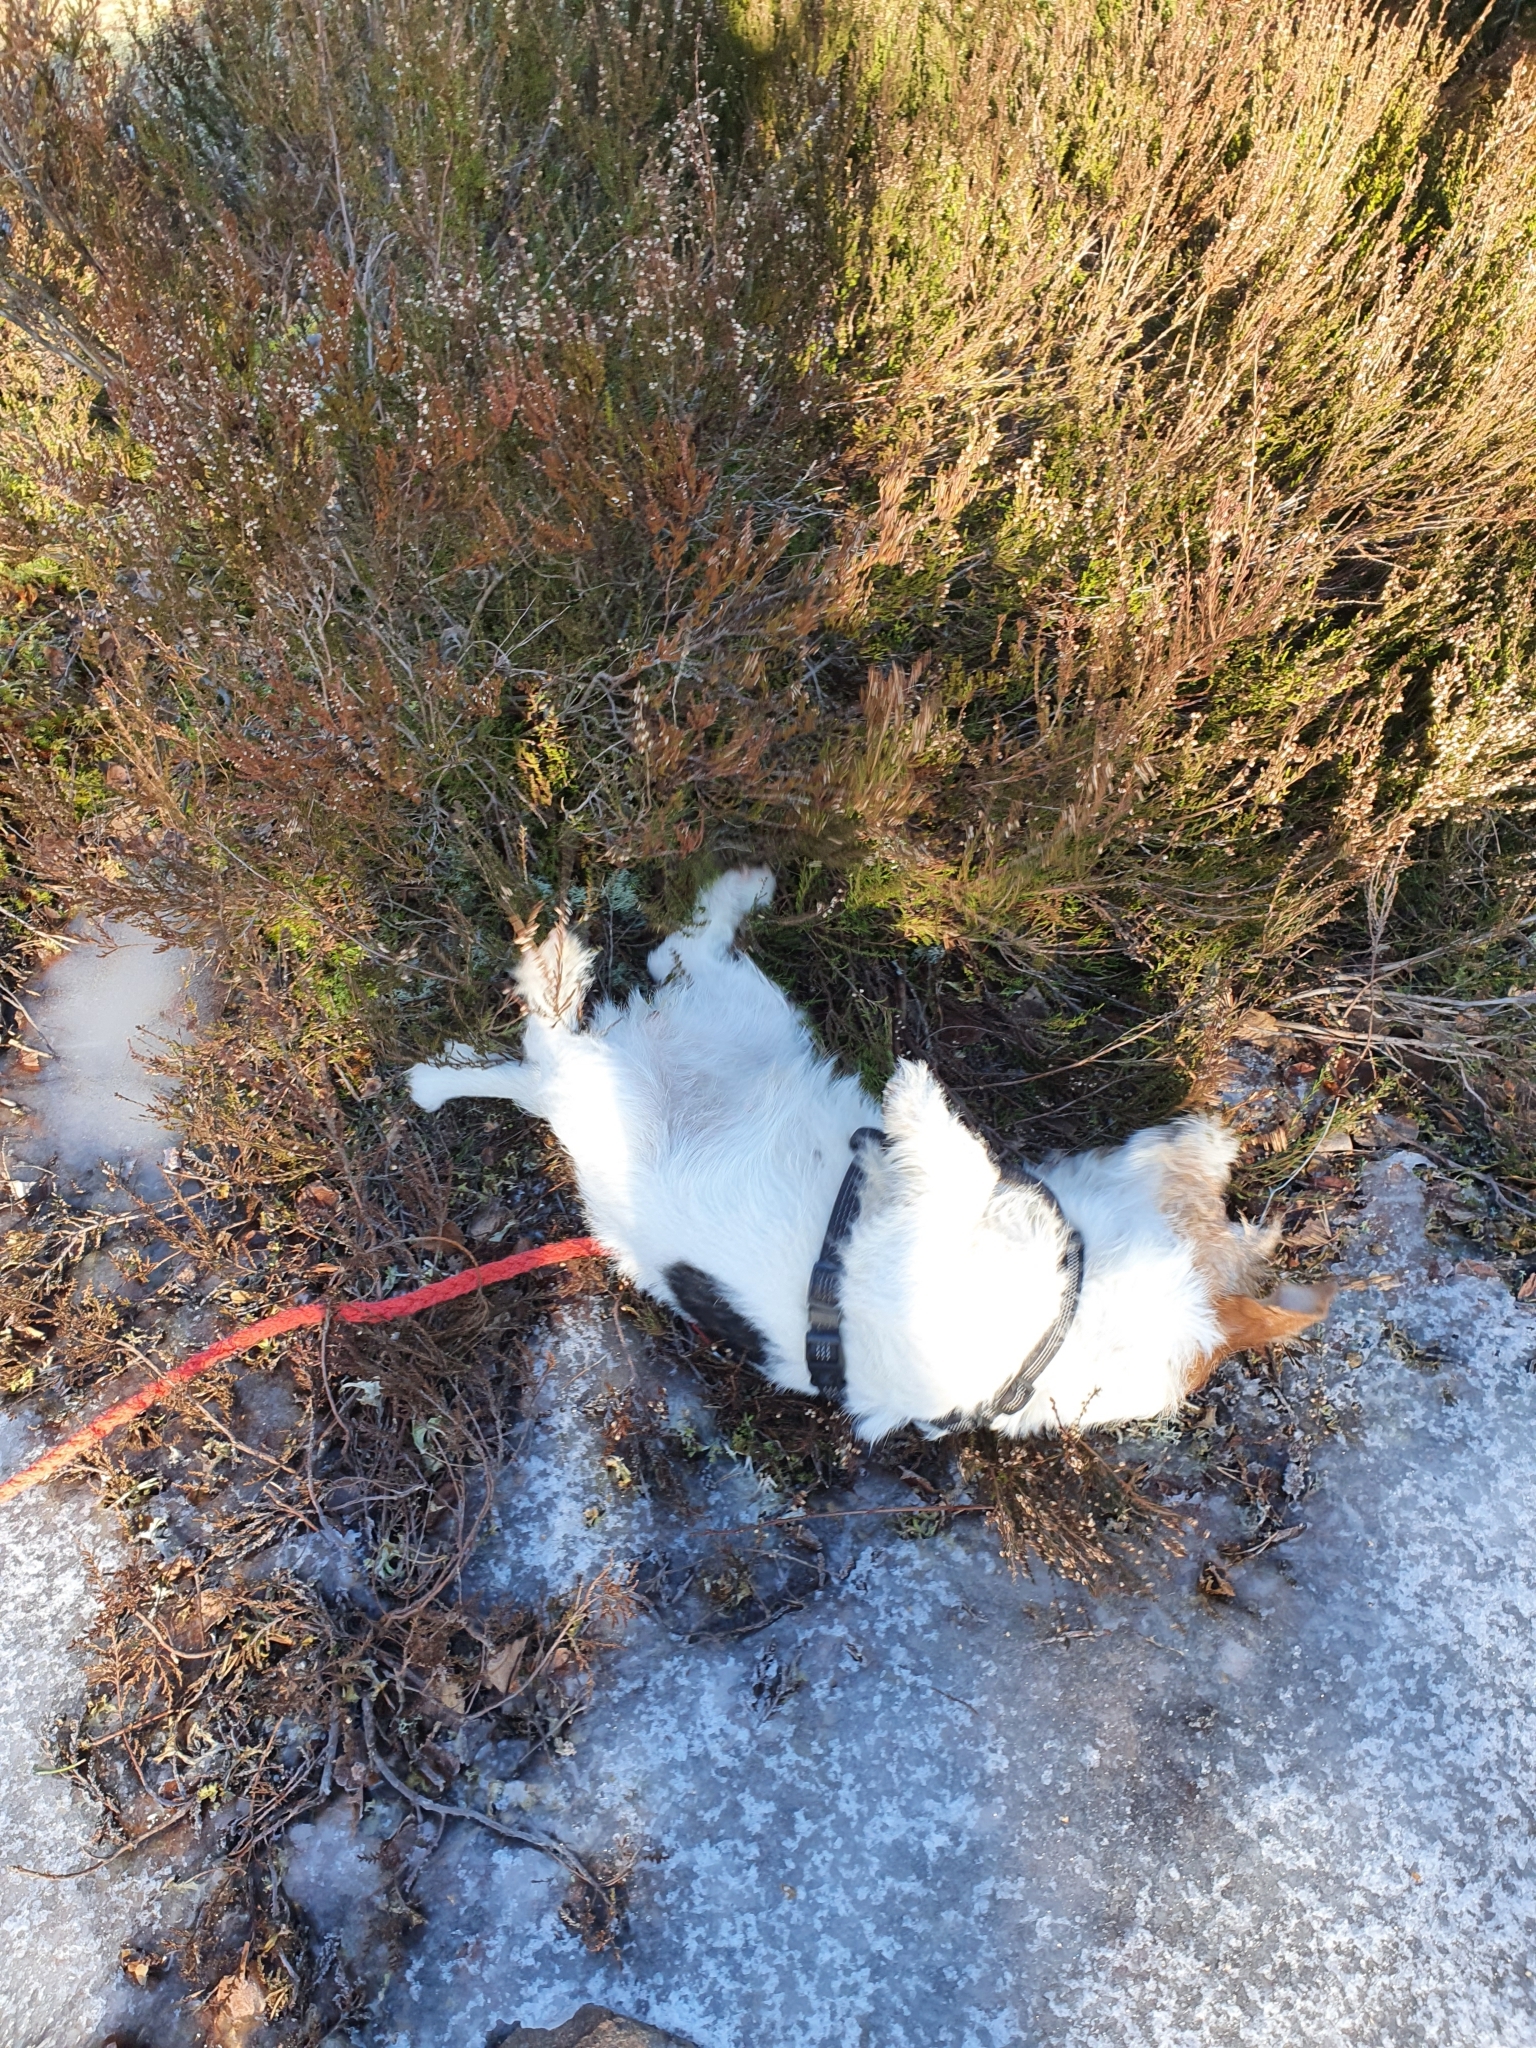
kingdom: Plantae
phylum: Tracheophyta
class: Magnoliopsida
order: Ericales
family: Ericaceae
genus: Calluna
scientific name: Calluna vulgaris
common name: Heather
